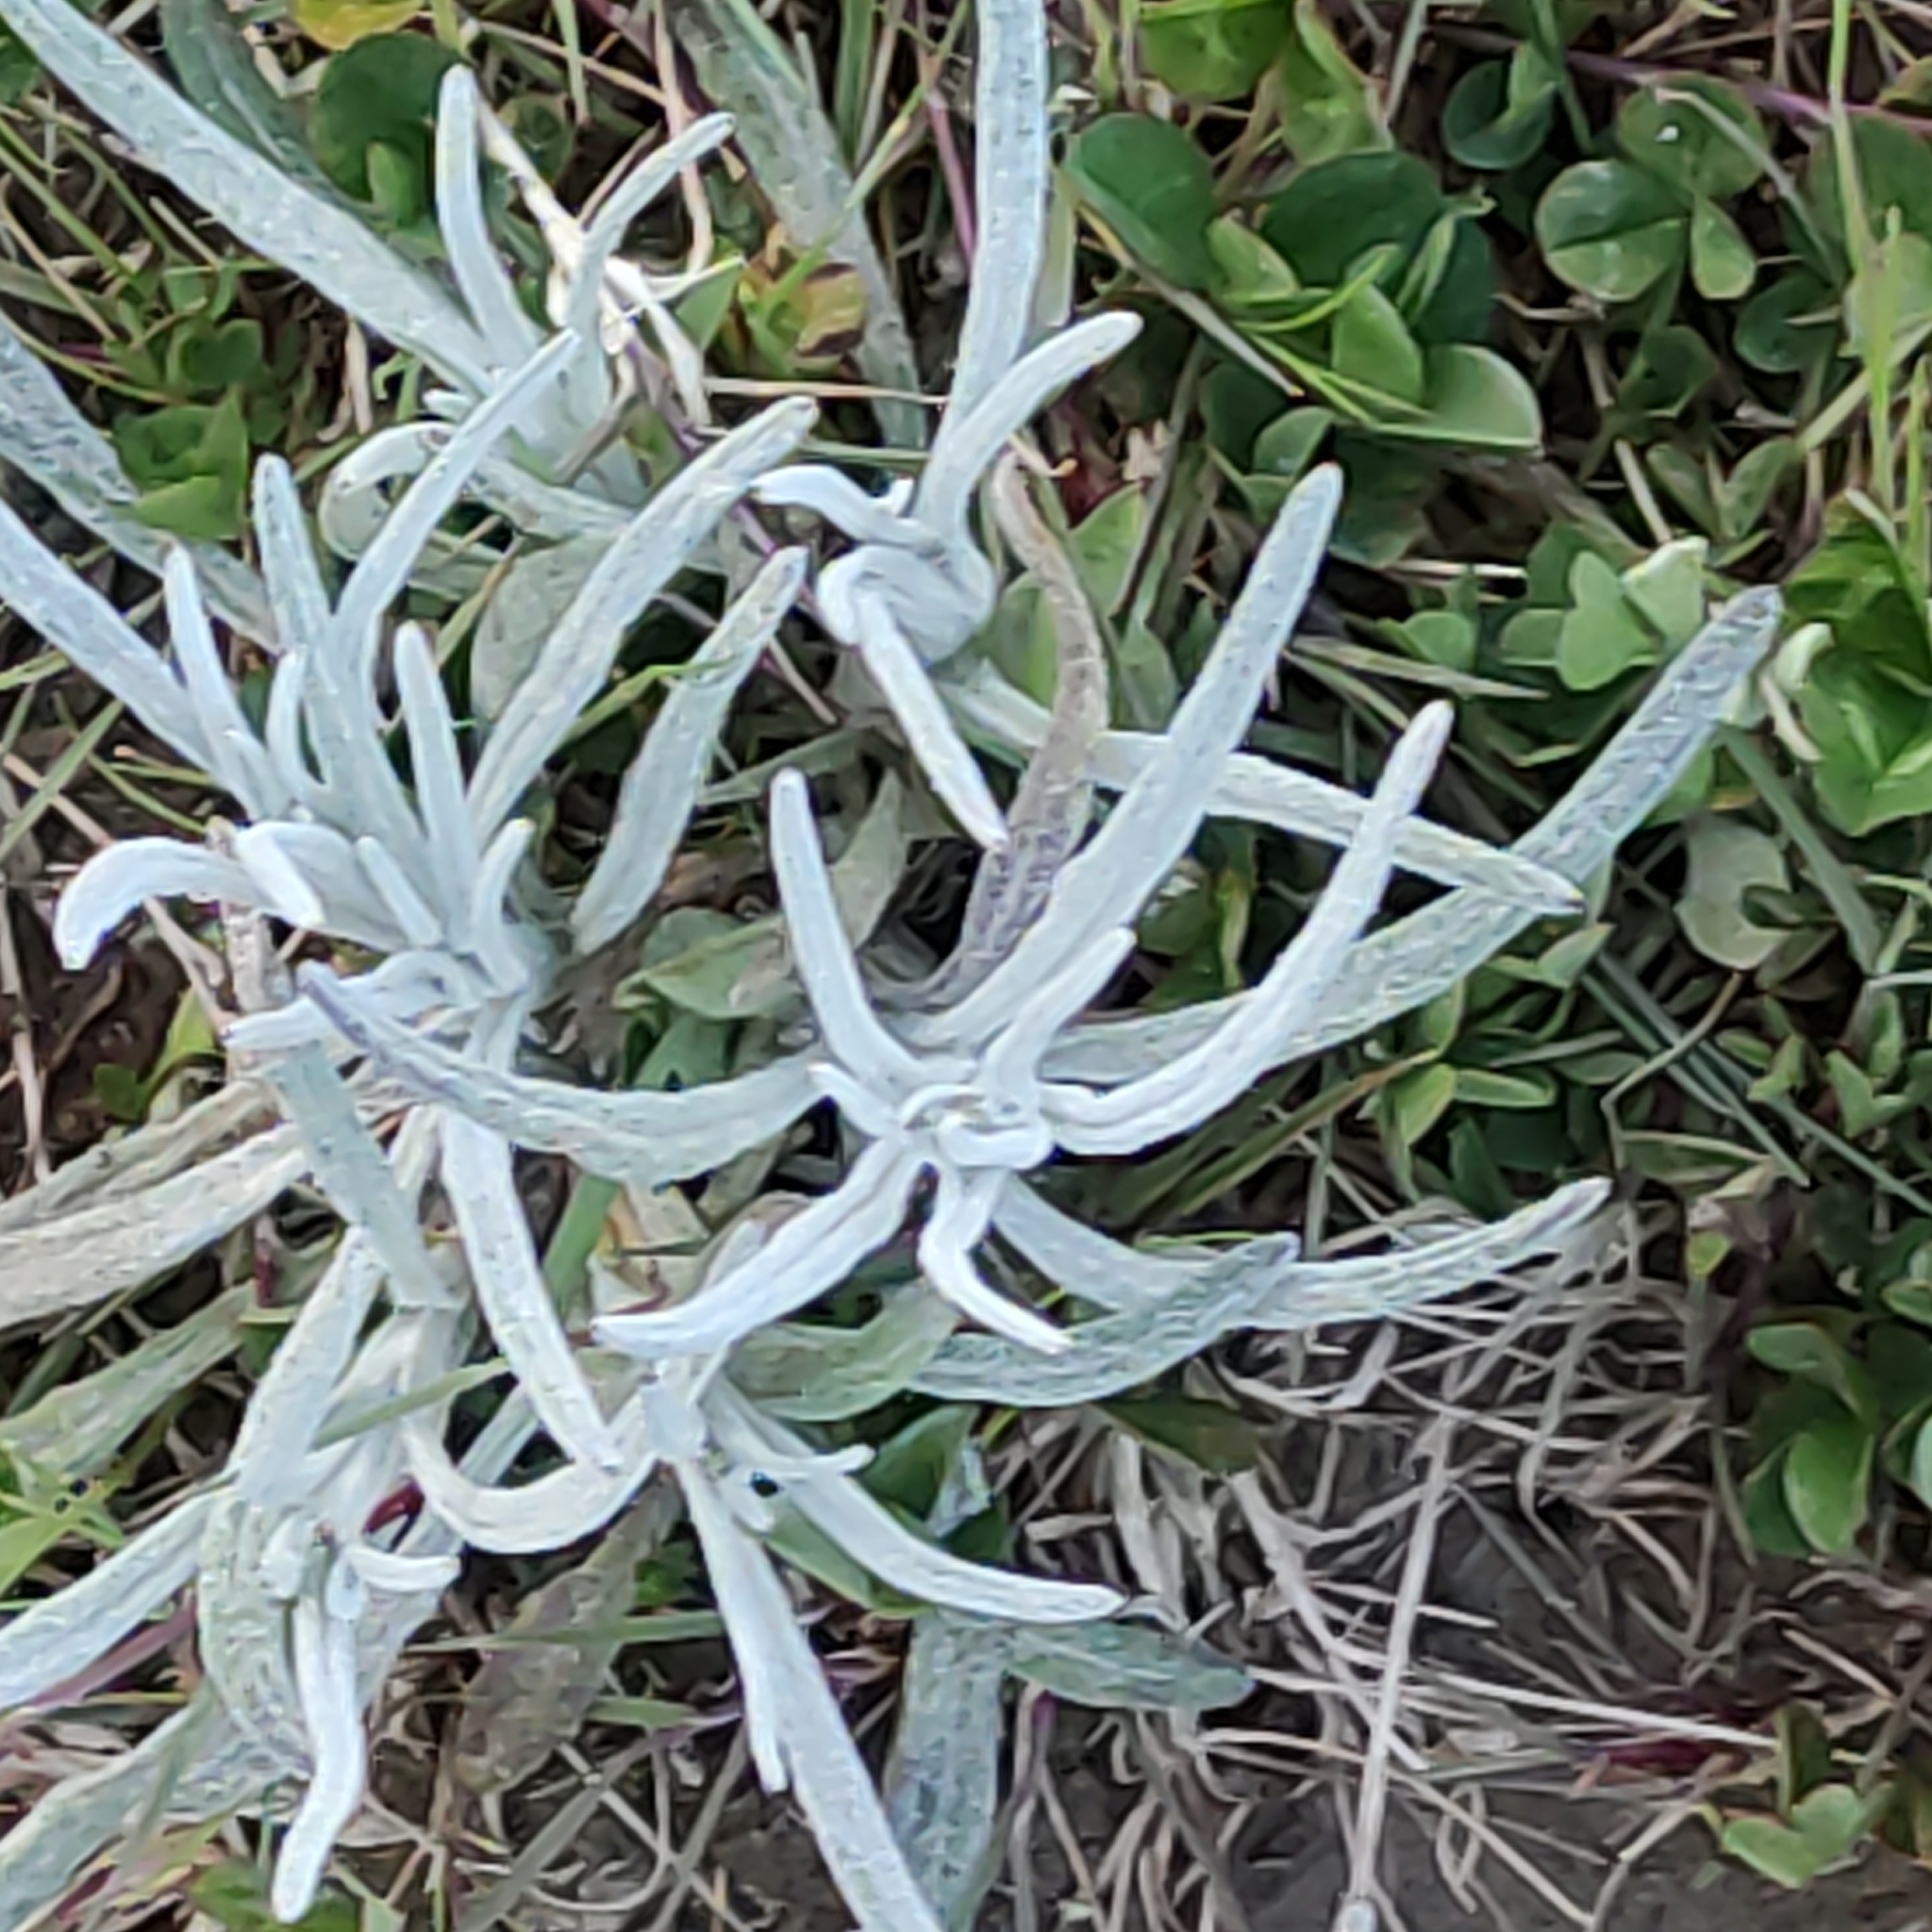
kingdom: Plantae
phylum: Tracheophyta
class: Magnoliopsida
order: Asterales
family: Asteraceae
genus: Senecio
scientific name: Senecio quadridentatus
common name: Cotton fireweed
